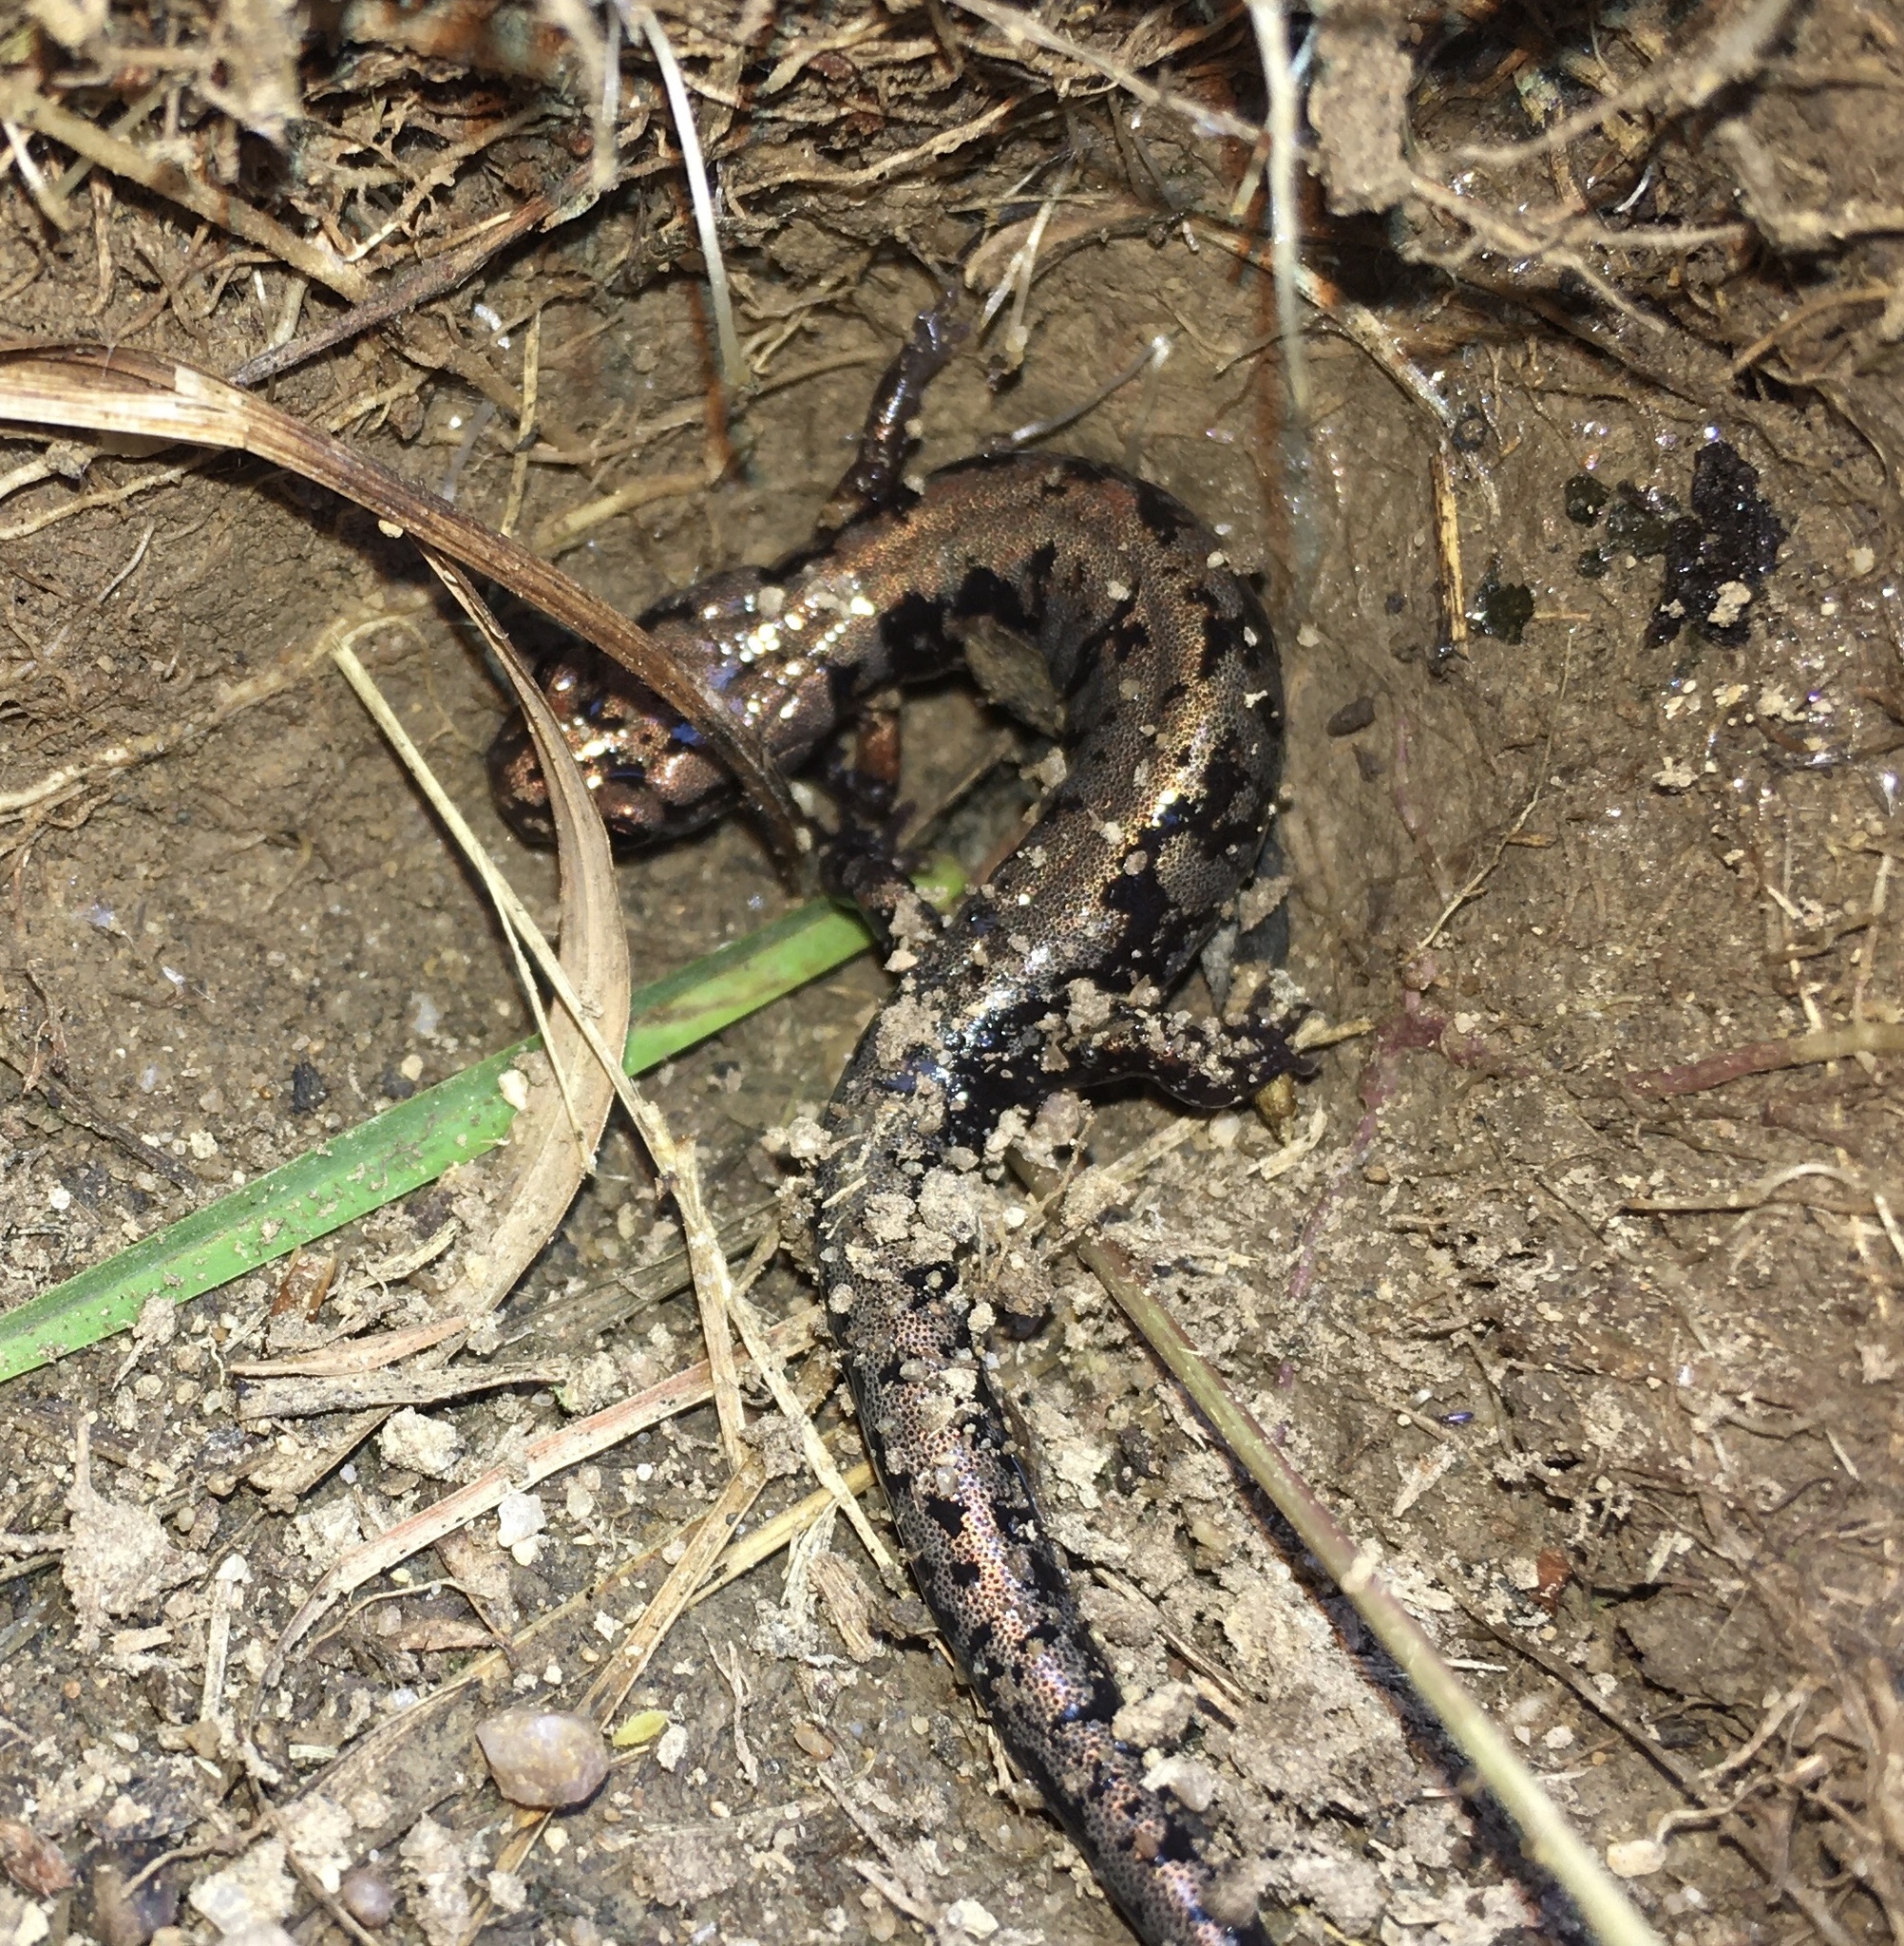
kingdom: Animalia
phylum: Chordata
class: Amphibia
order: Caudata
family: Plethodontidae
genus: Plethodon
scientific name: Plethodon welleri
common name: Weller's salamander
